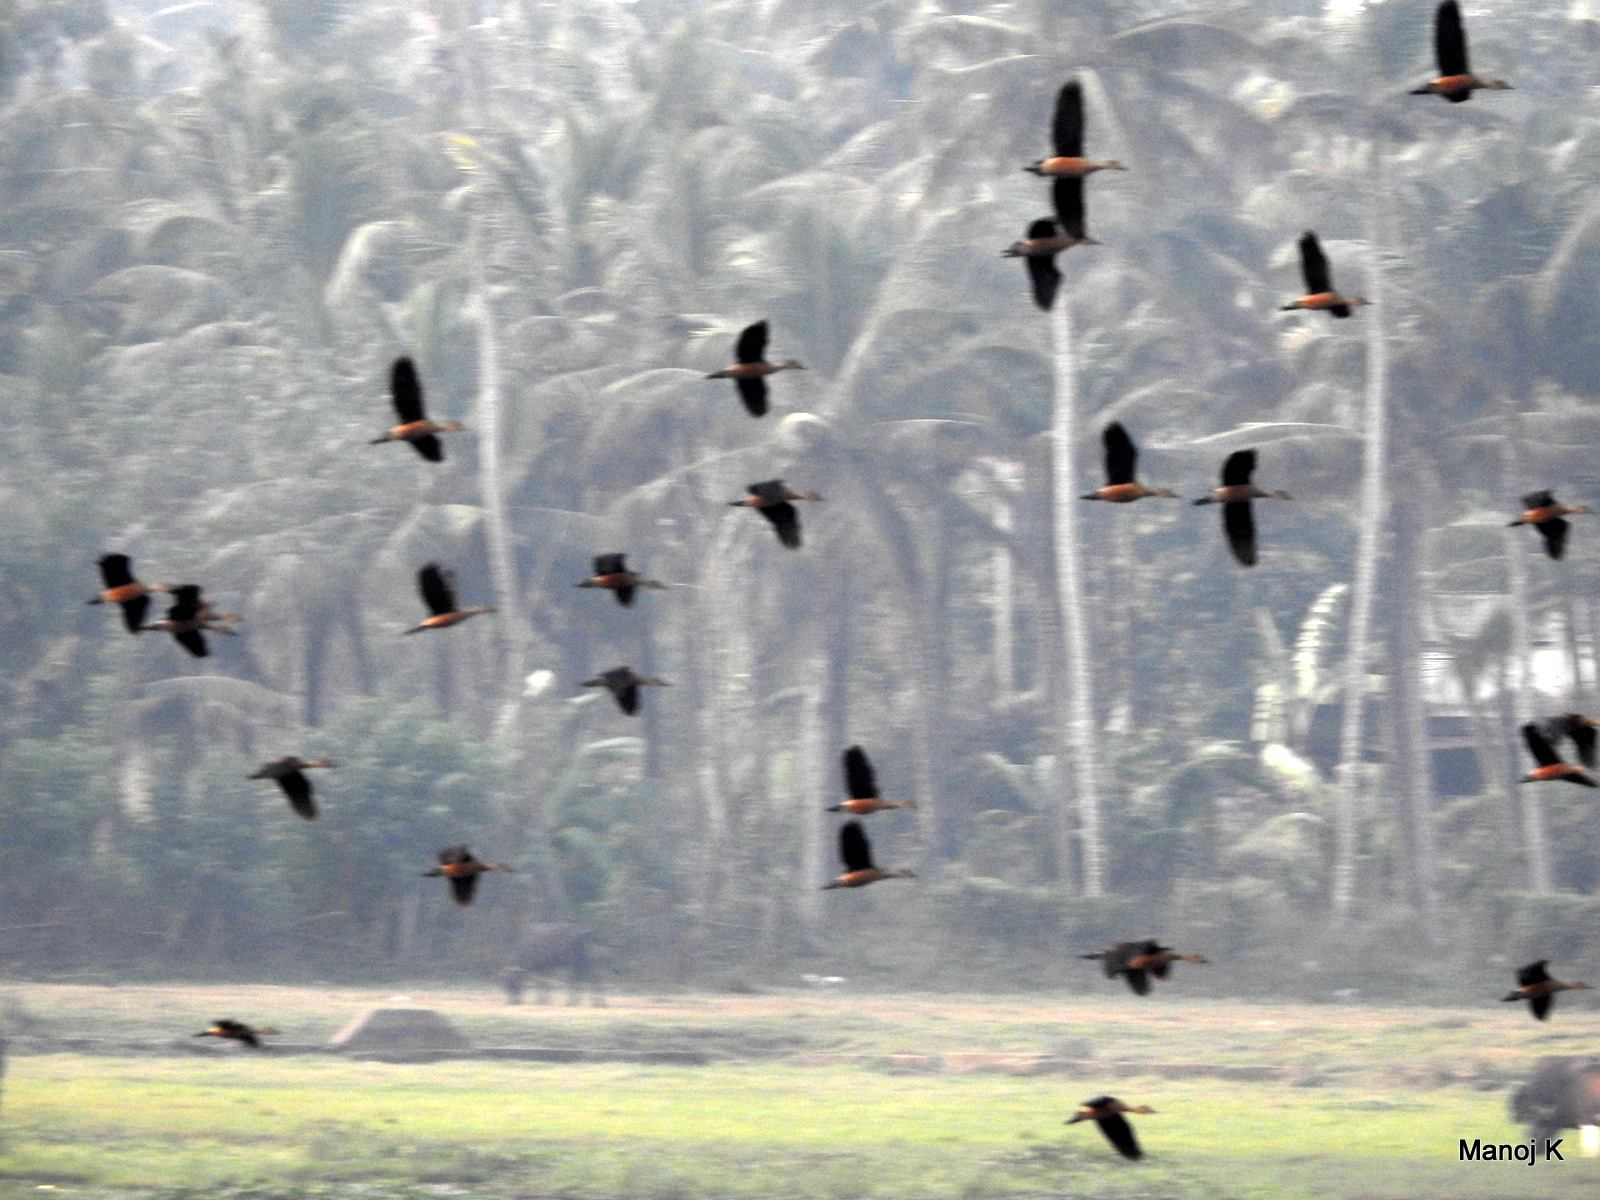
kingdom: Animalia
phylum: Chordata
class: Aves
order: Anseriformes
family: Anatidae
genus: Dendrocygna
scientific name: Dendrocygna javanica
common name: Lesser whistling-duck
